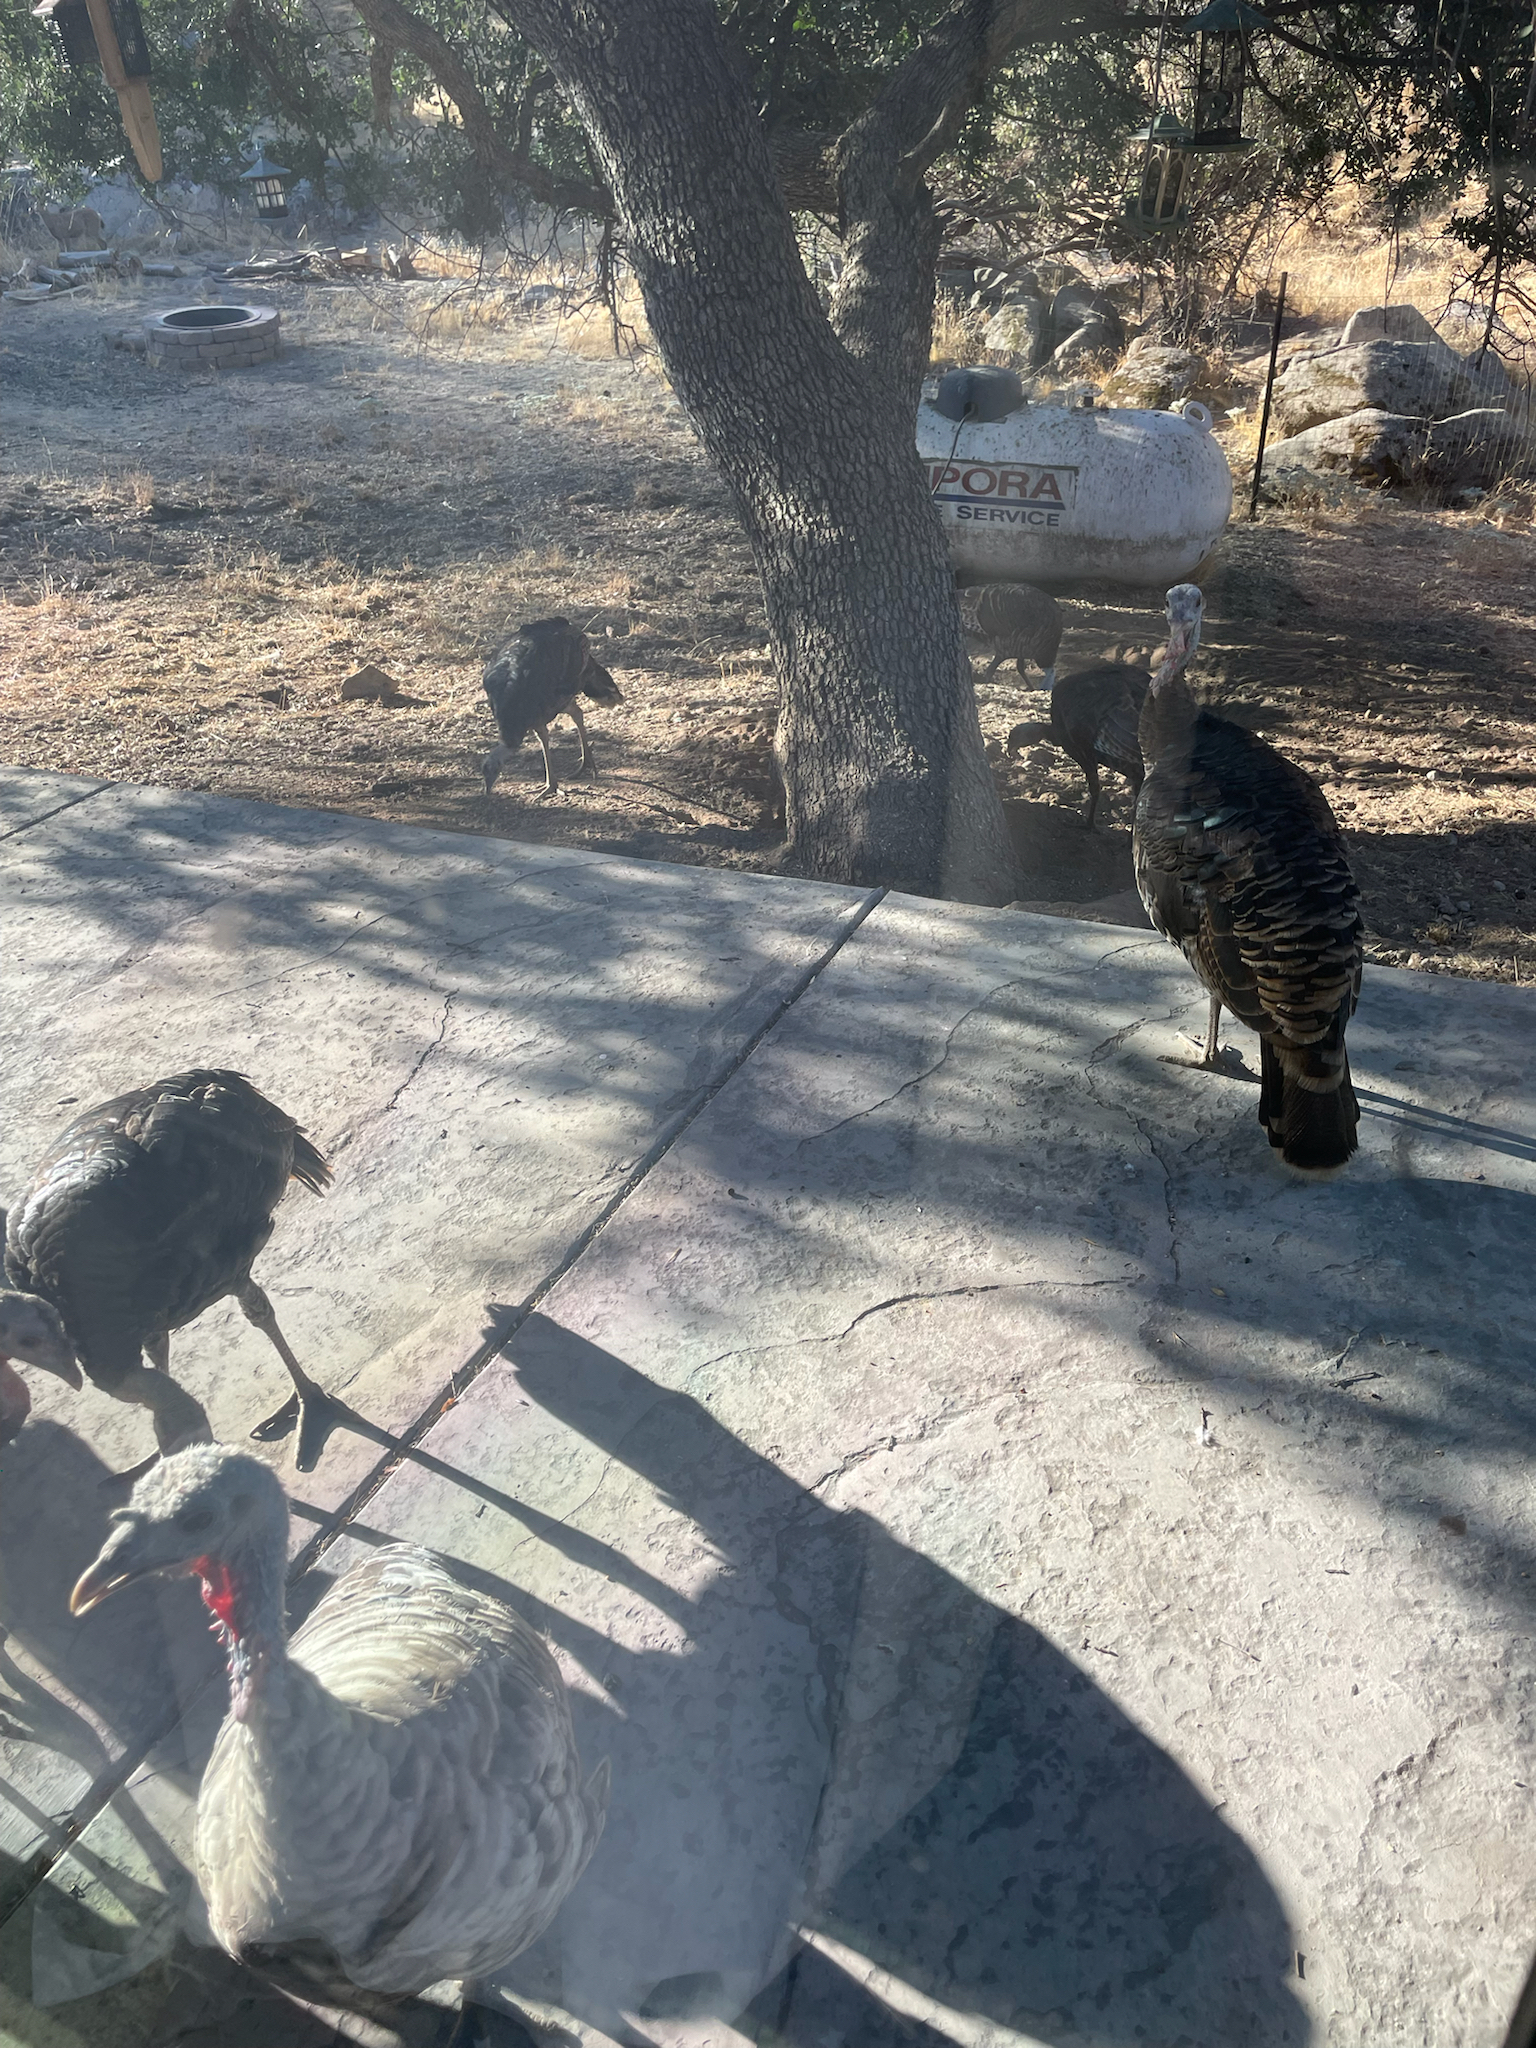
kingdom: Animalia
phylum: Chordata
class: Aves
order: Galliformes
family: Phasianidae
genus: Meleagris
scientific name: Meleagris gallopavo
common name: Wild turkey
